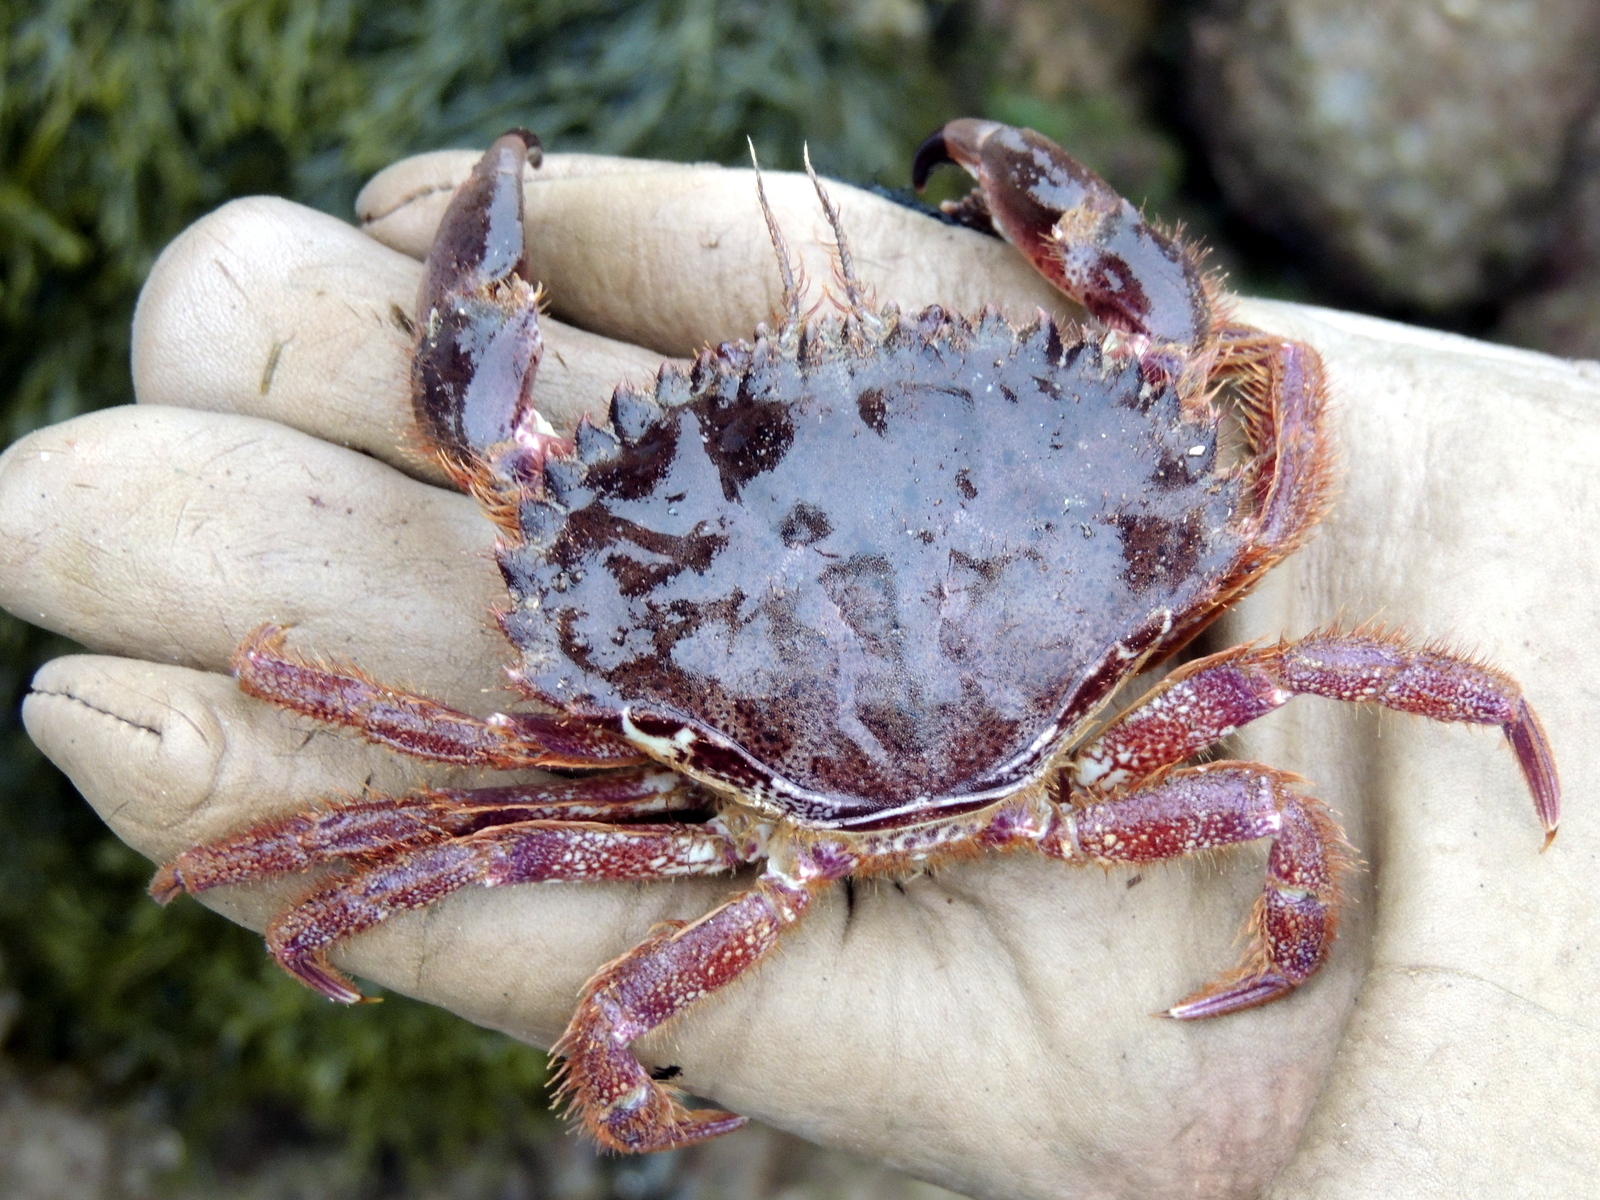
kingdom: Animalia
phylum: Arthropoda
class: Malacostraca
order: Decapoda
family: Cancridae
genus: Romaleon
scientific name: Romaleon antennarium
